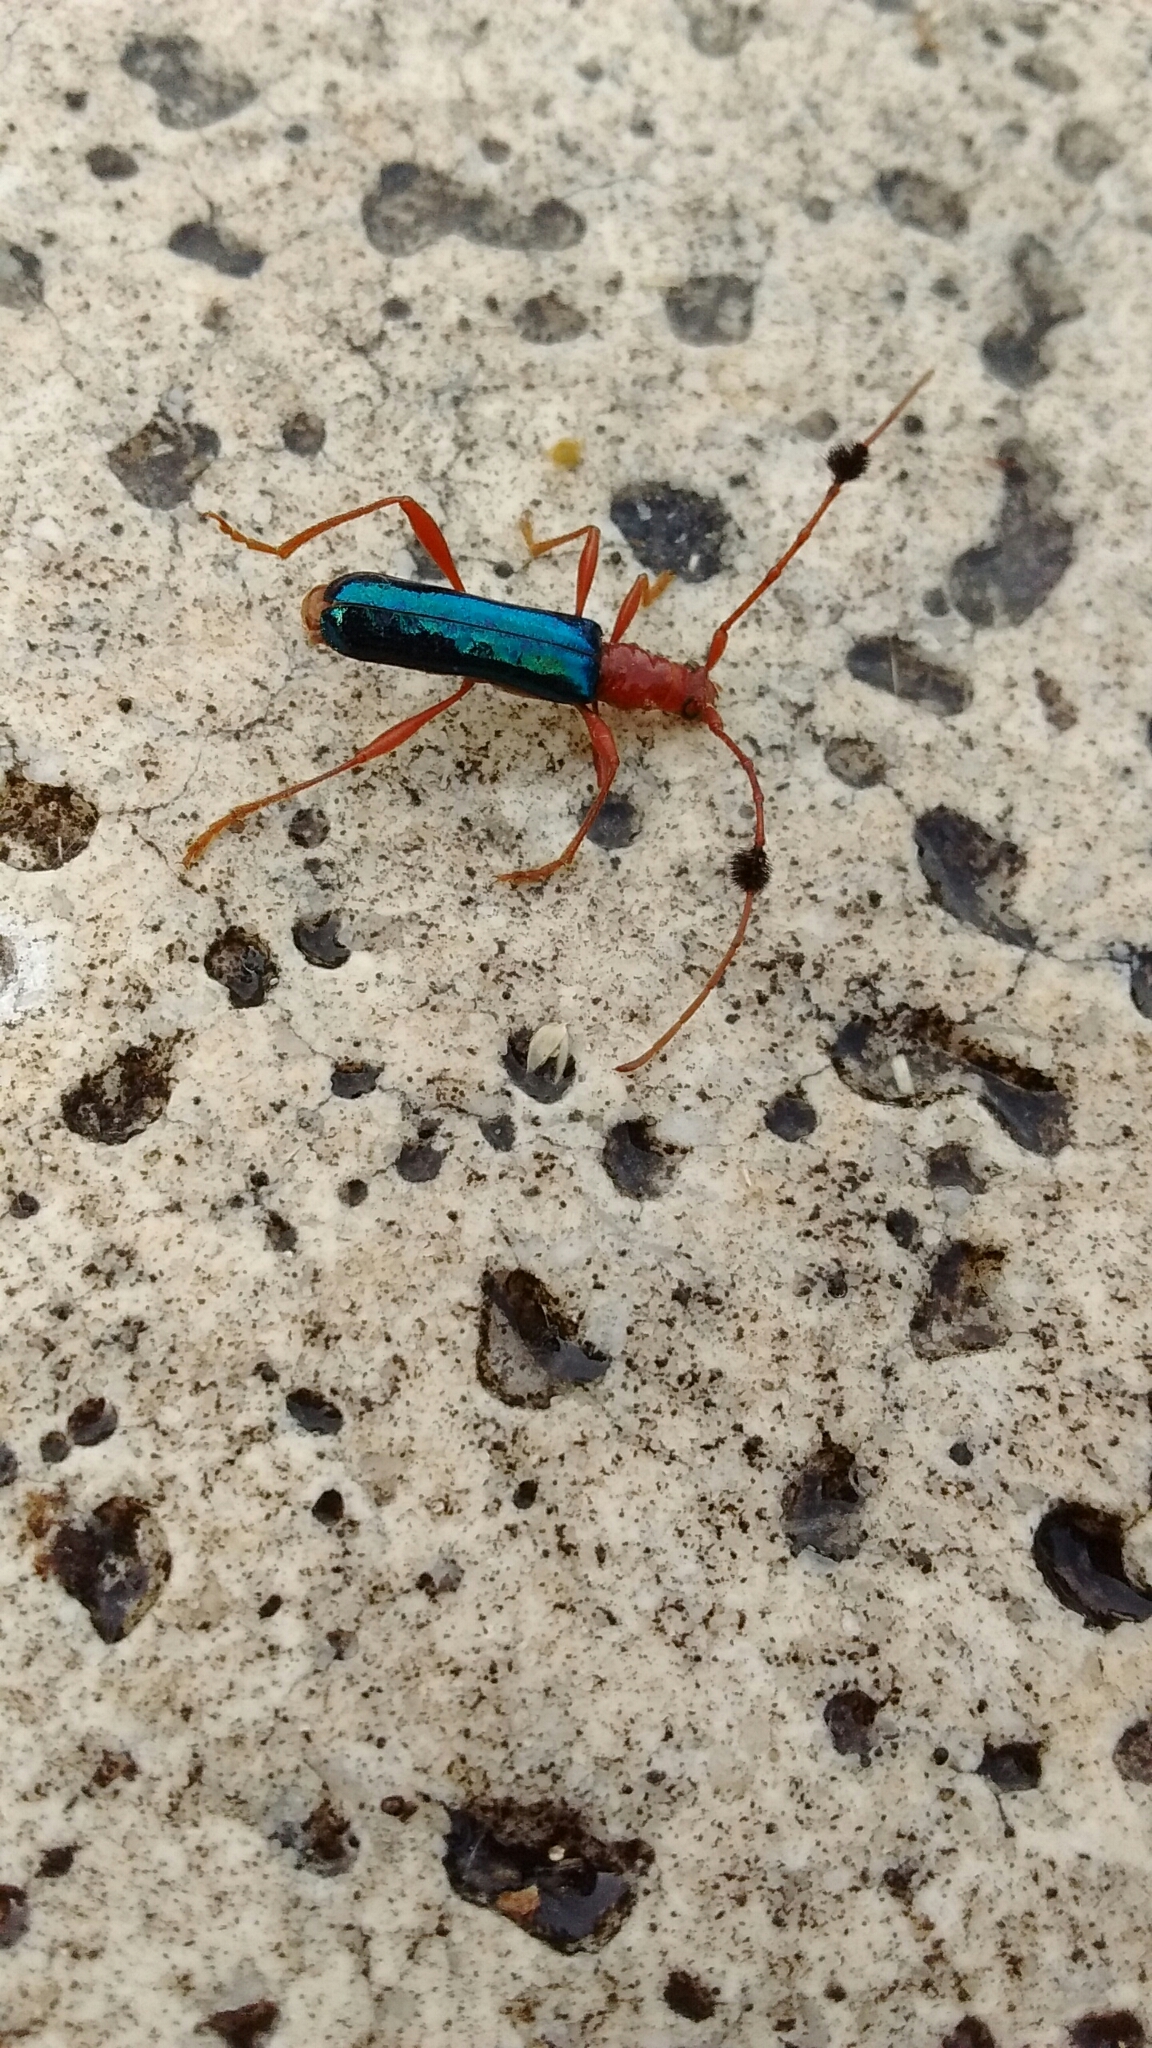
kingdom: Animalia
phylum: Arthropoda
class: Insecta
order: Coleoptera
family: Cerambycidae
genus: Compsocerus
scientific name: Compsocerus violaceus
